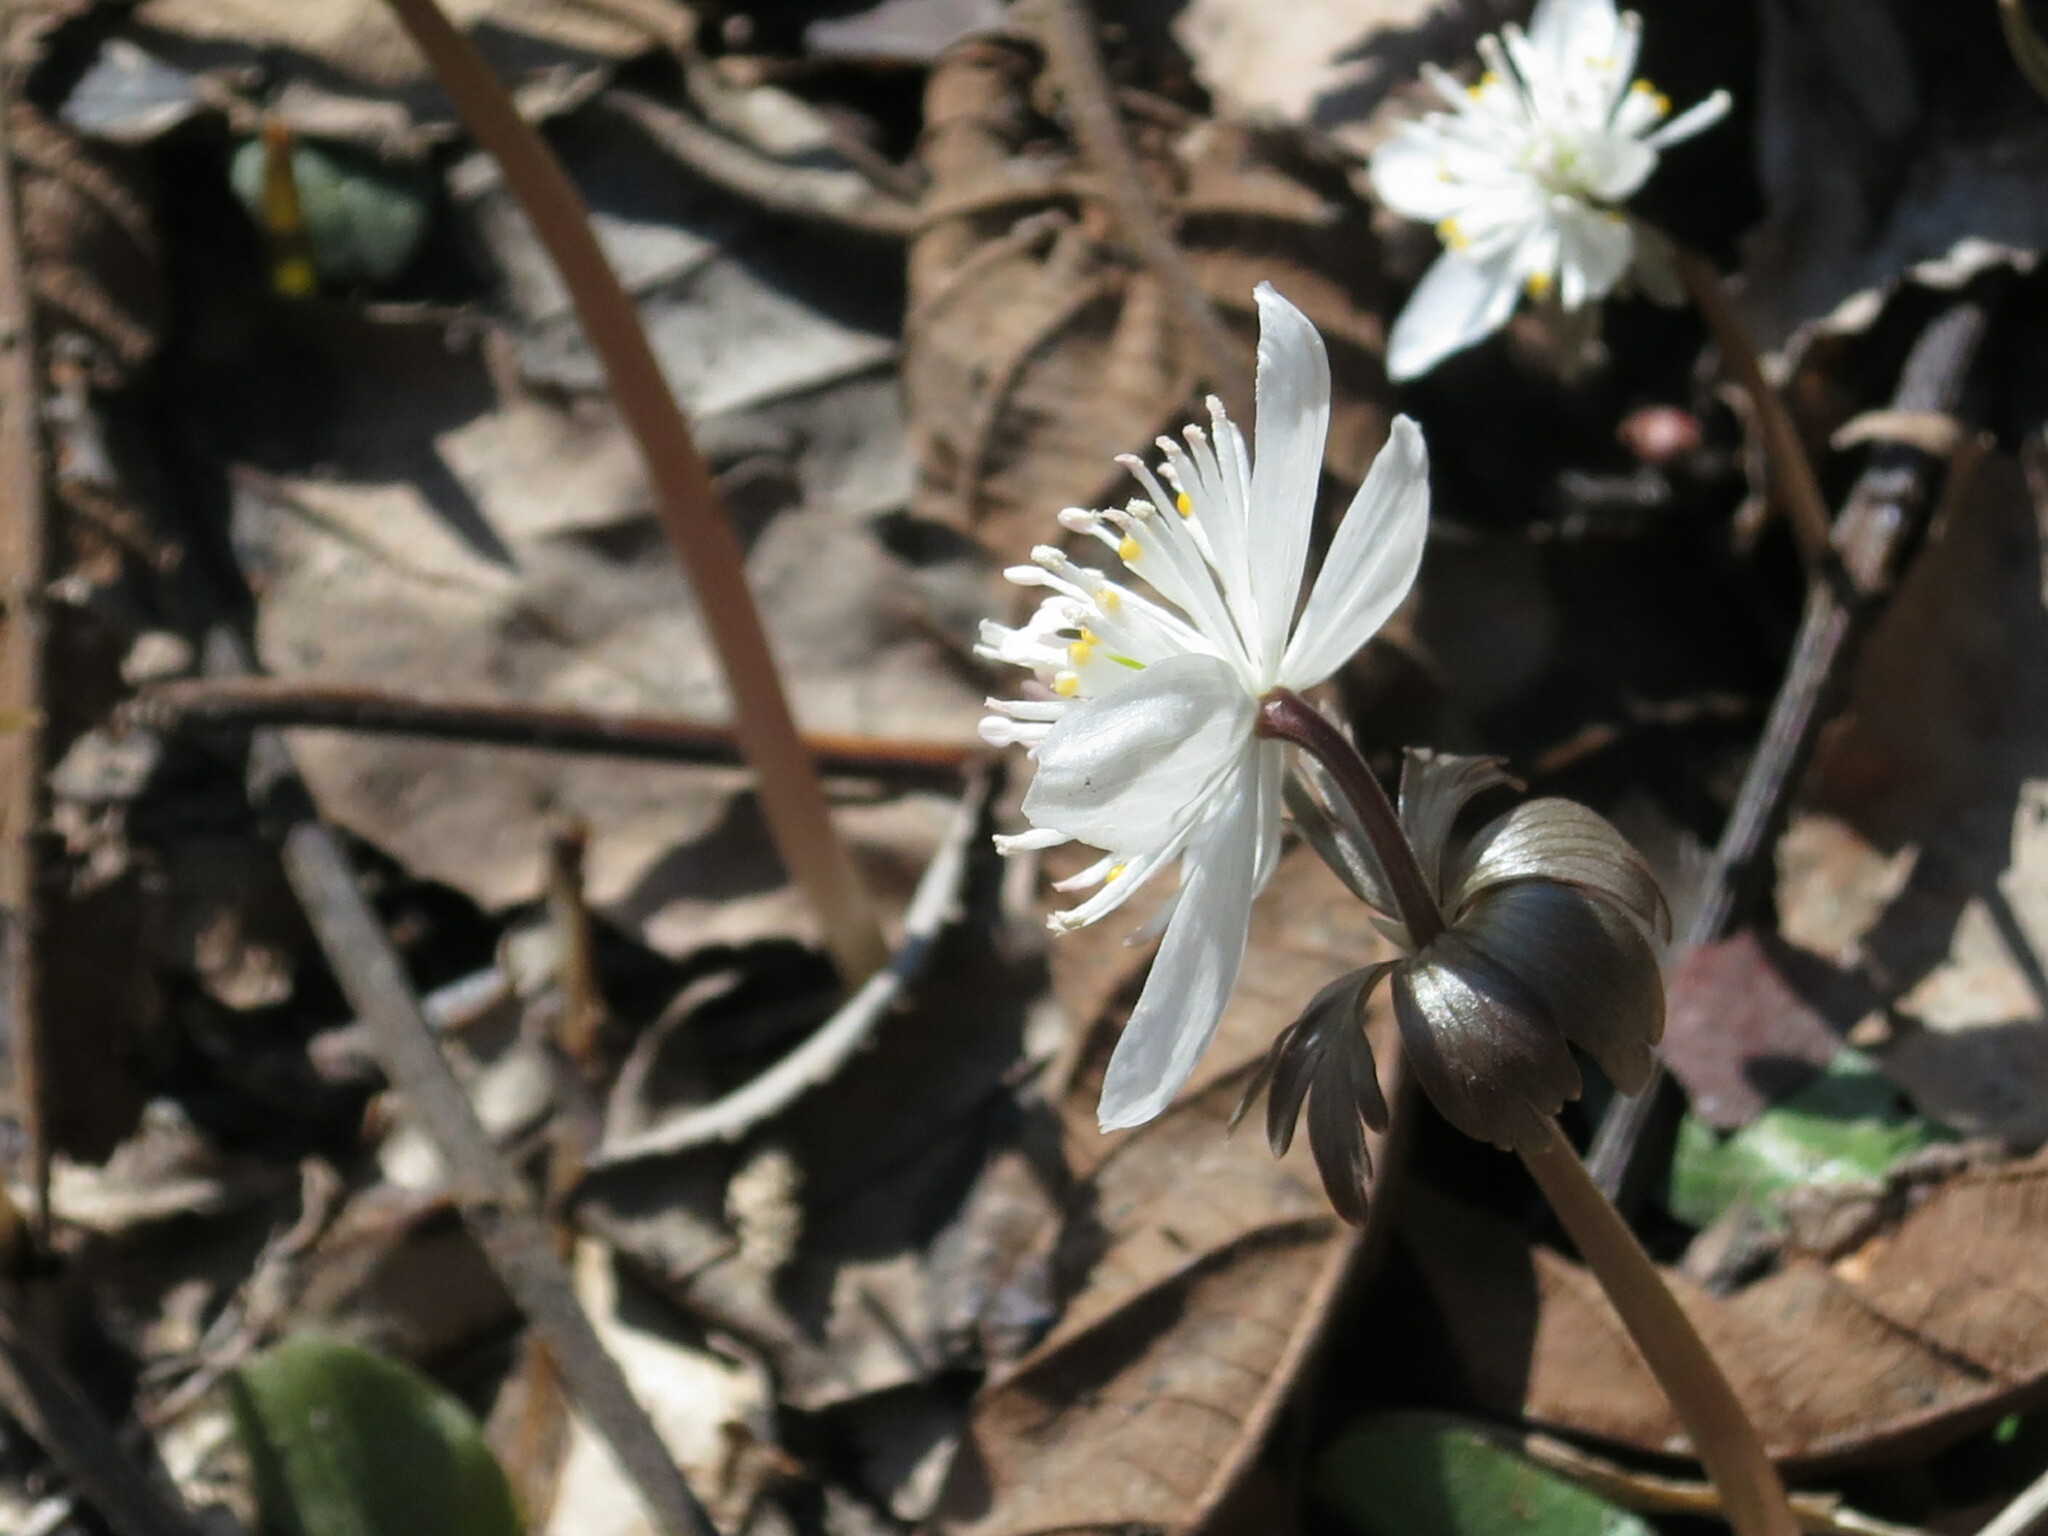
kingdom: Plantae
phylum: Tracheophyta
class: Magnoliopsida
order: Ranunculales
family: Ranunculaceae
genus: Eranthis
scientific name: Eranthis stellata
